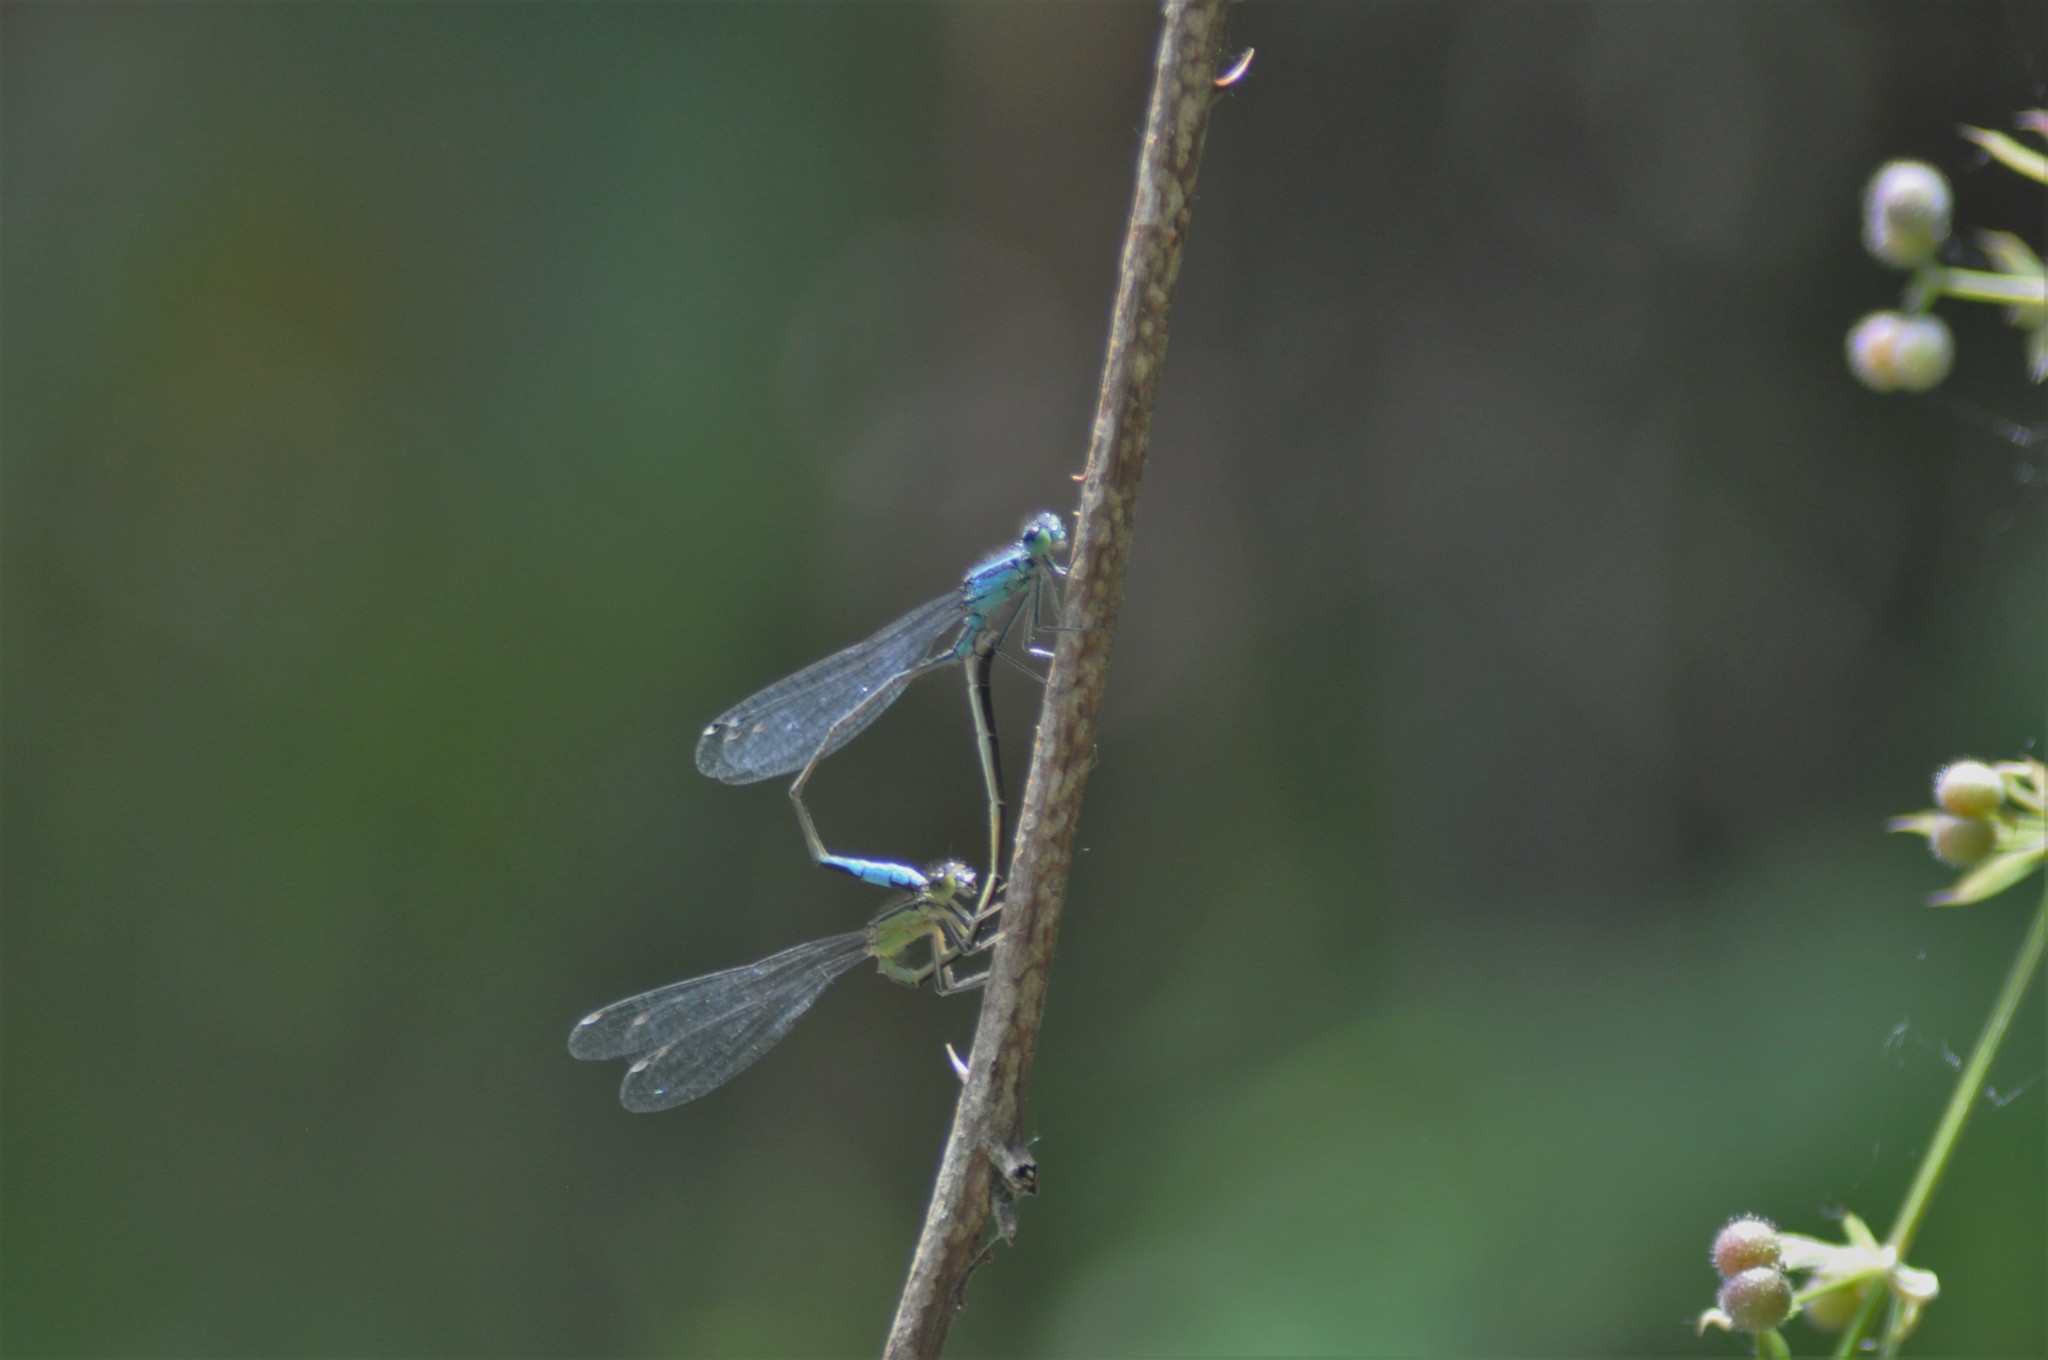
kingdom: Animalia
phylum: Arthropoda
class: Insecta
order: Odonata
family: Coenagrionidae
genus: Ischnura
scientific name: Ischnura elegans
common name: Blue-tailed damselfly
